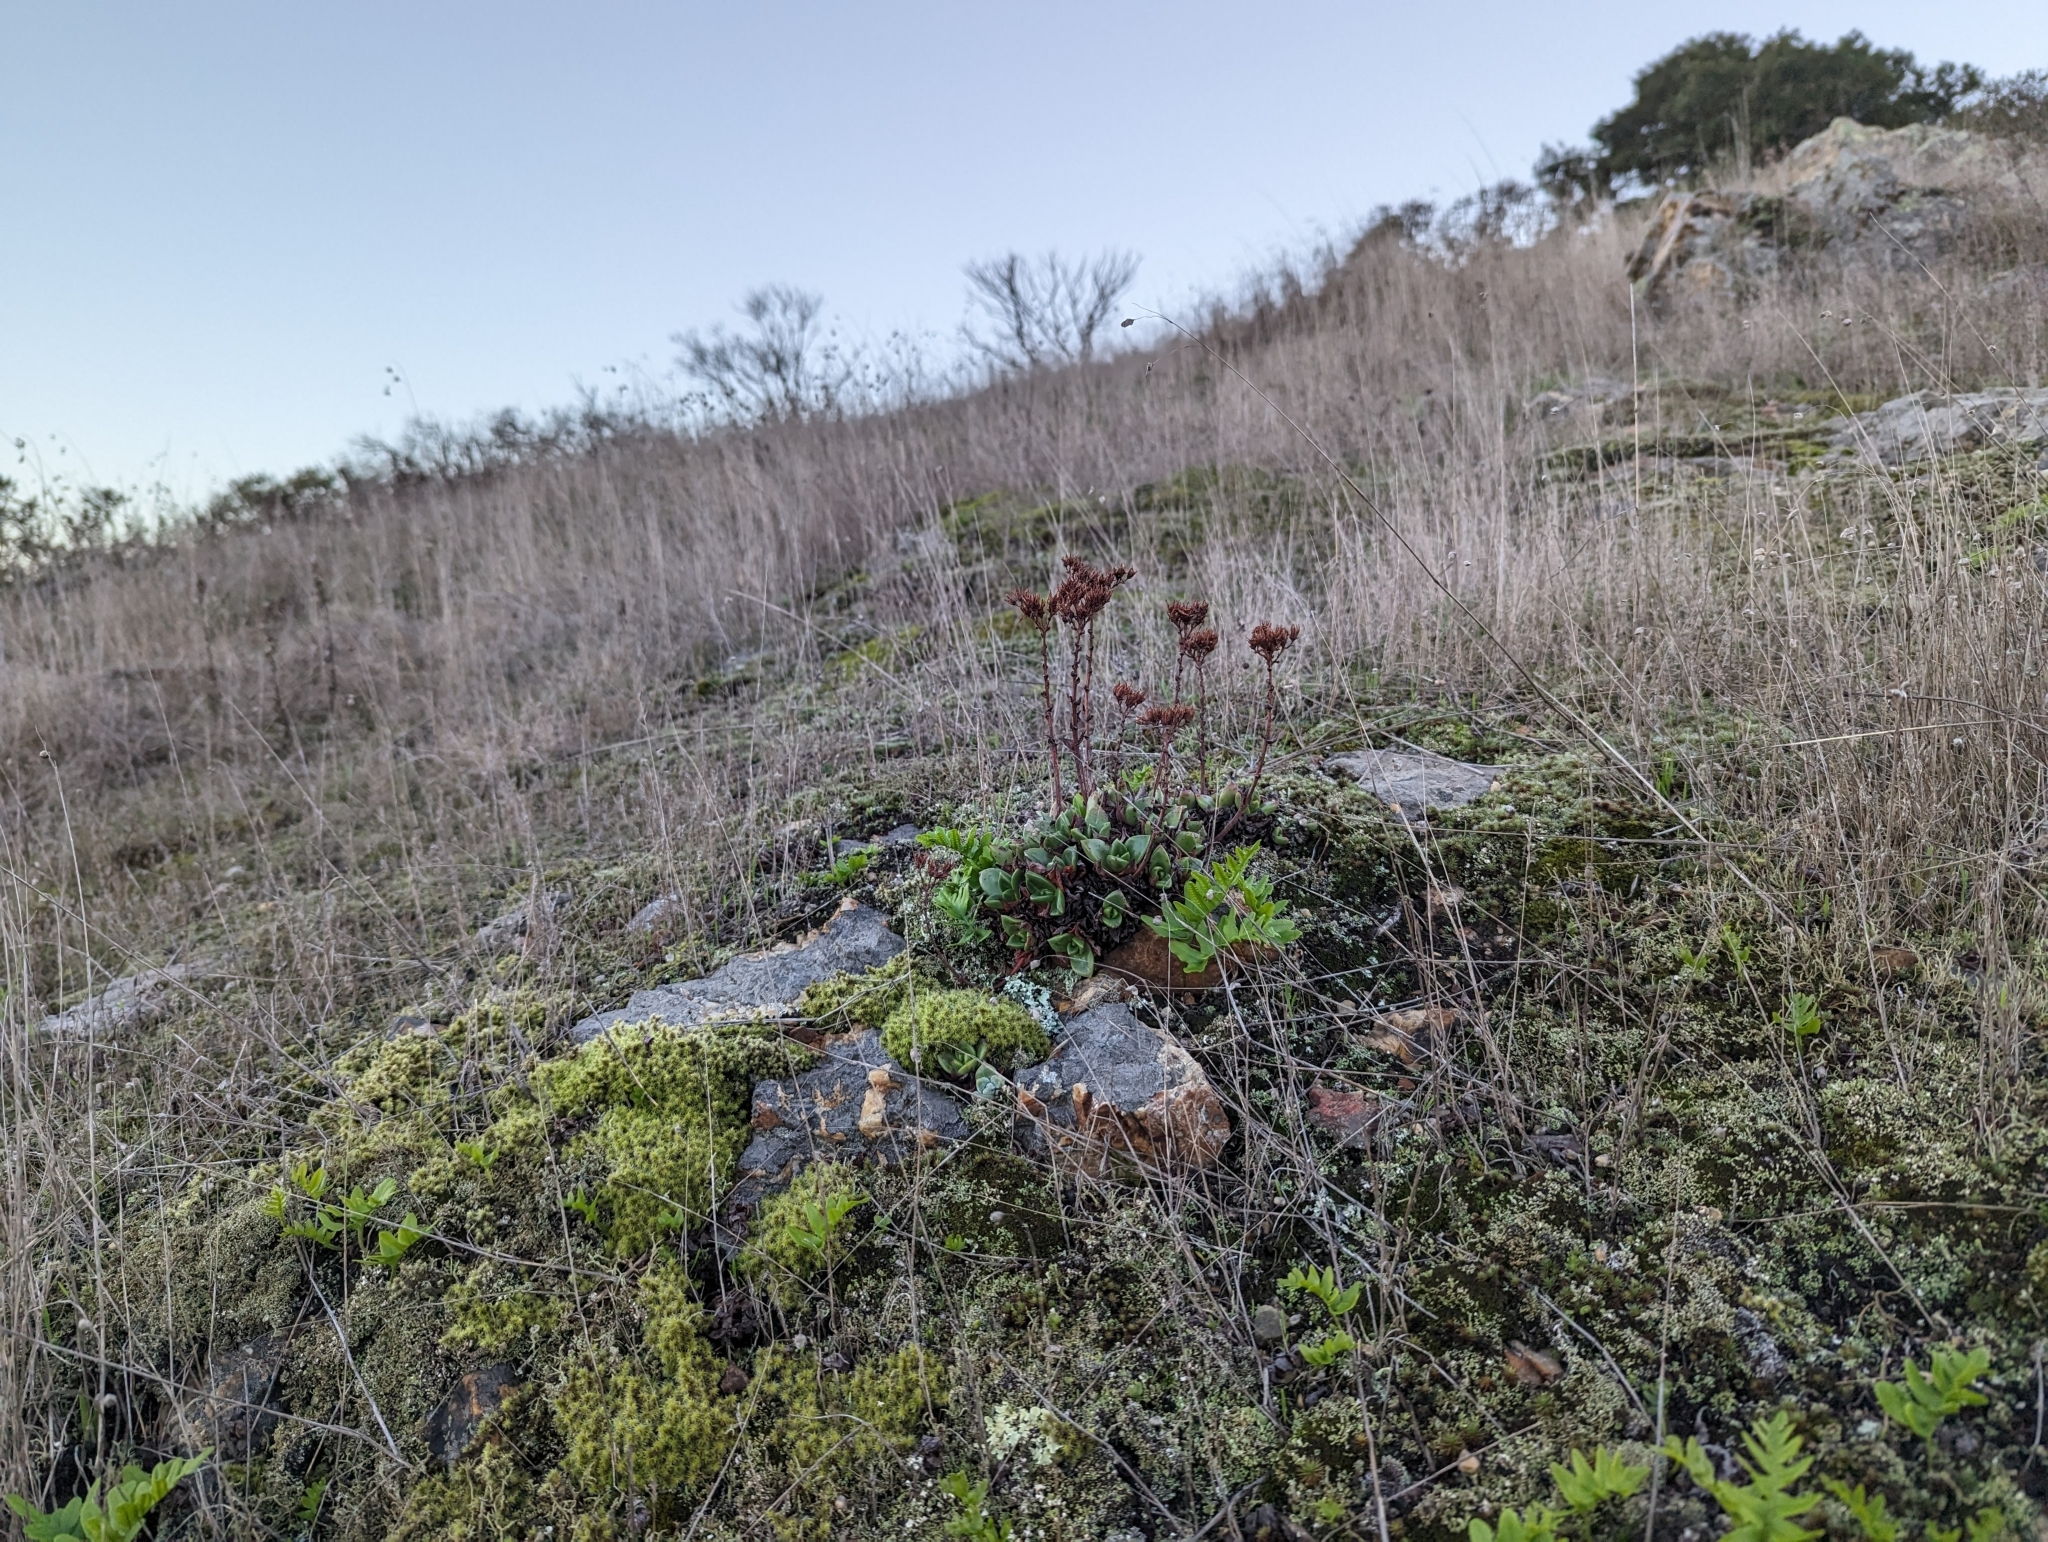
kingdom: Plantae
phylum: Tracheophyta
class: Magnoliopsida
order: Saxifragales
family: Crassulaceae
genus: Dudleya
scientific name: Dudleya farinosa
